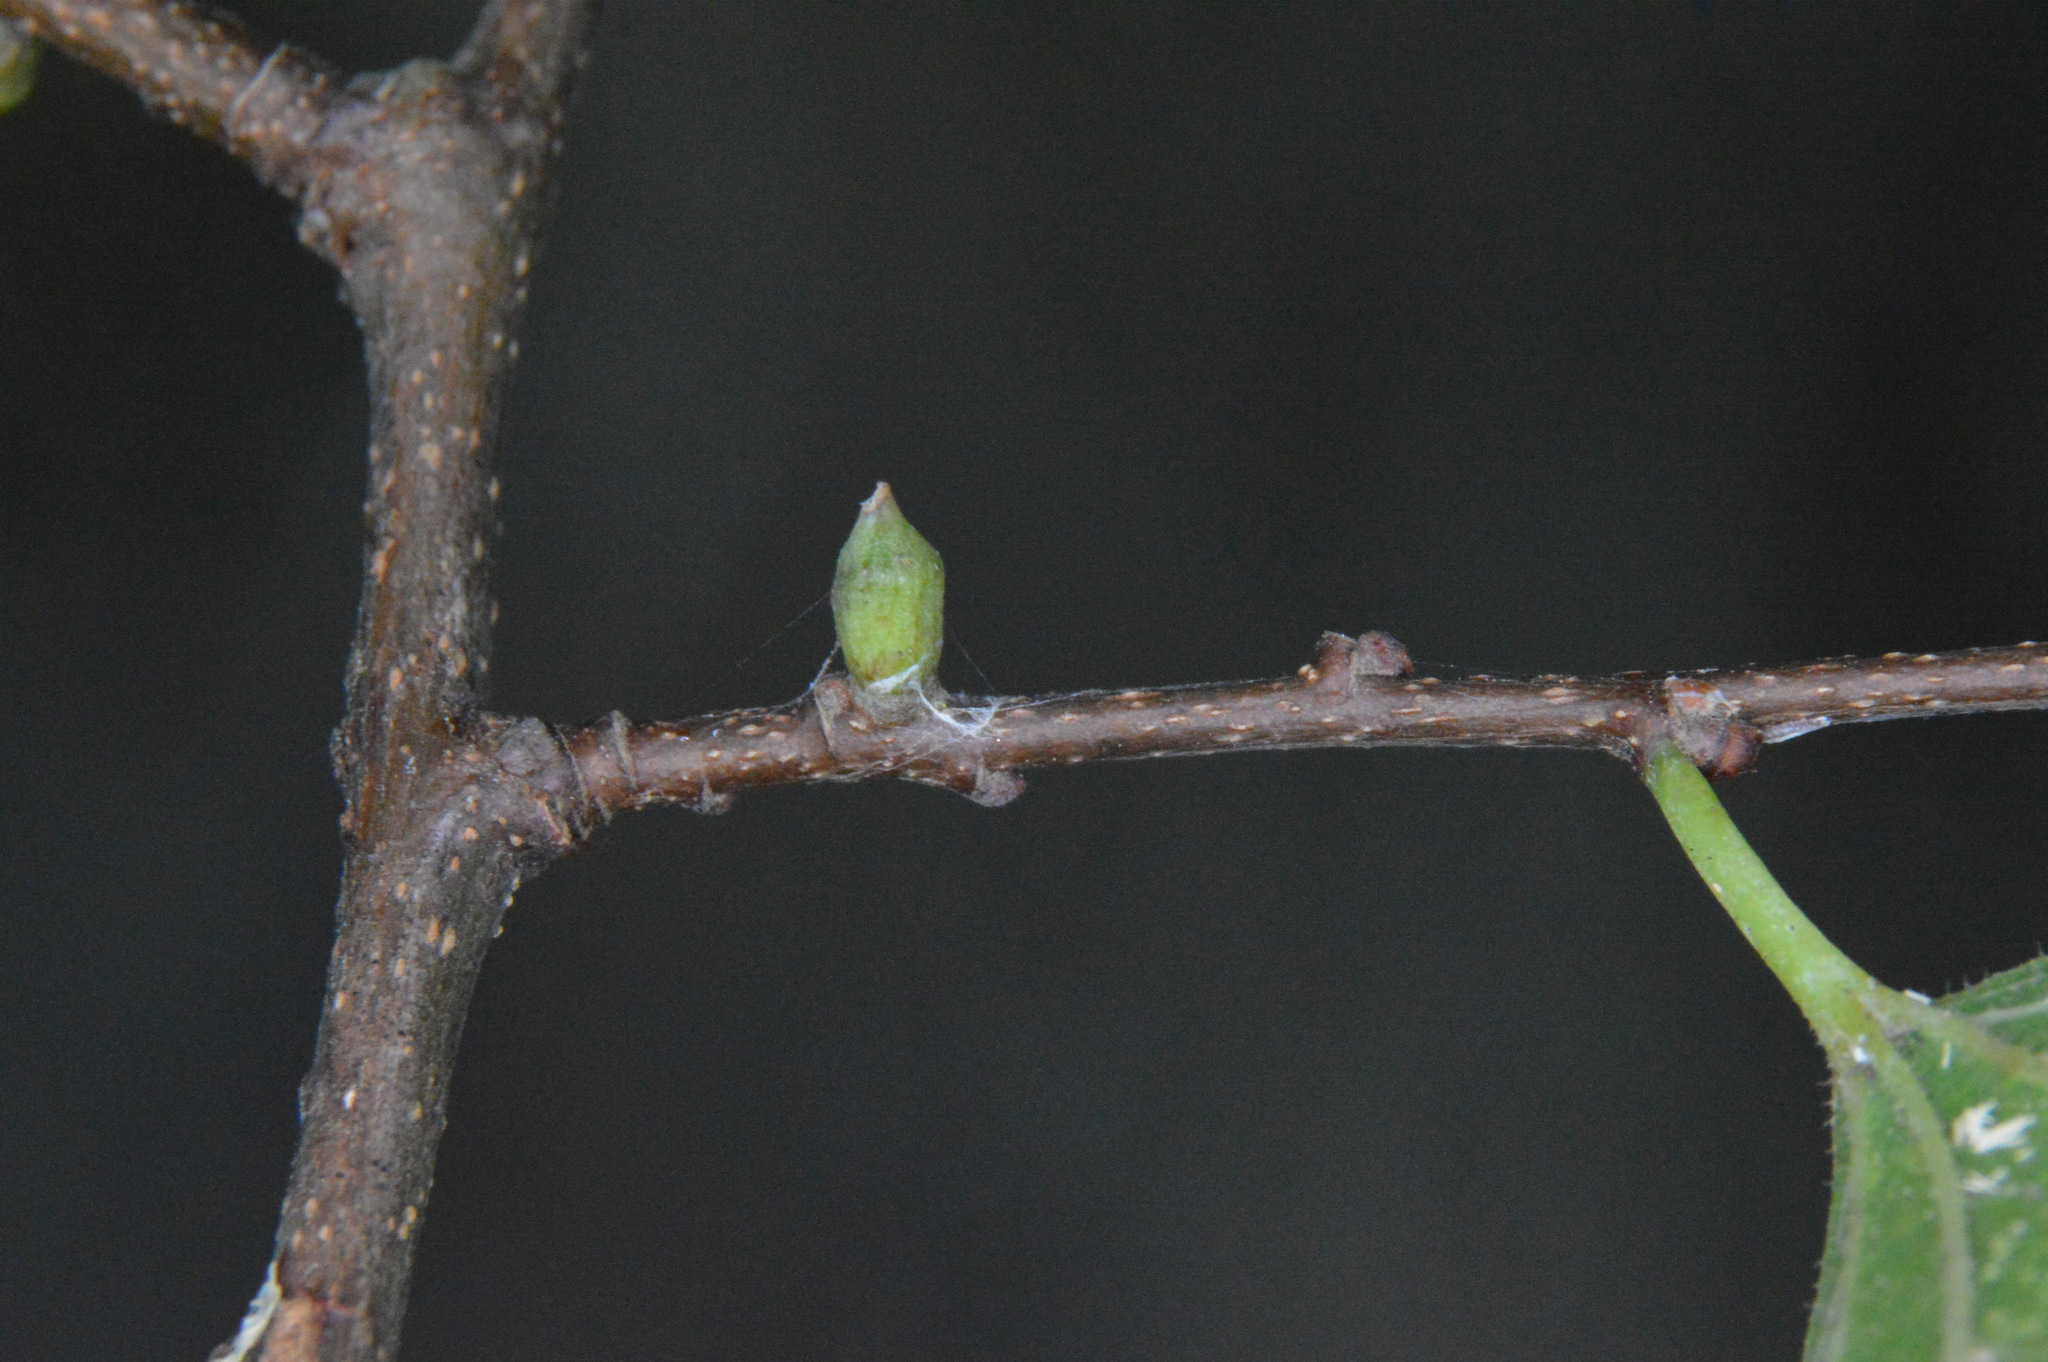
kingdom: Animalia
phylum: Arthropoda
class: Insecta
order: Diptera
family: Cecidomyiidae
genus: Celticecis
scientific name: Celticecis ramicola
